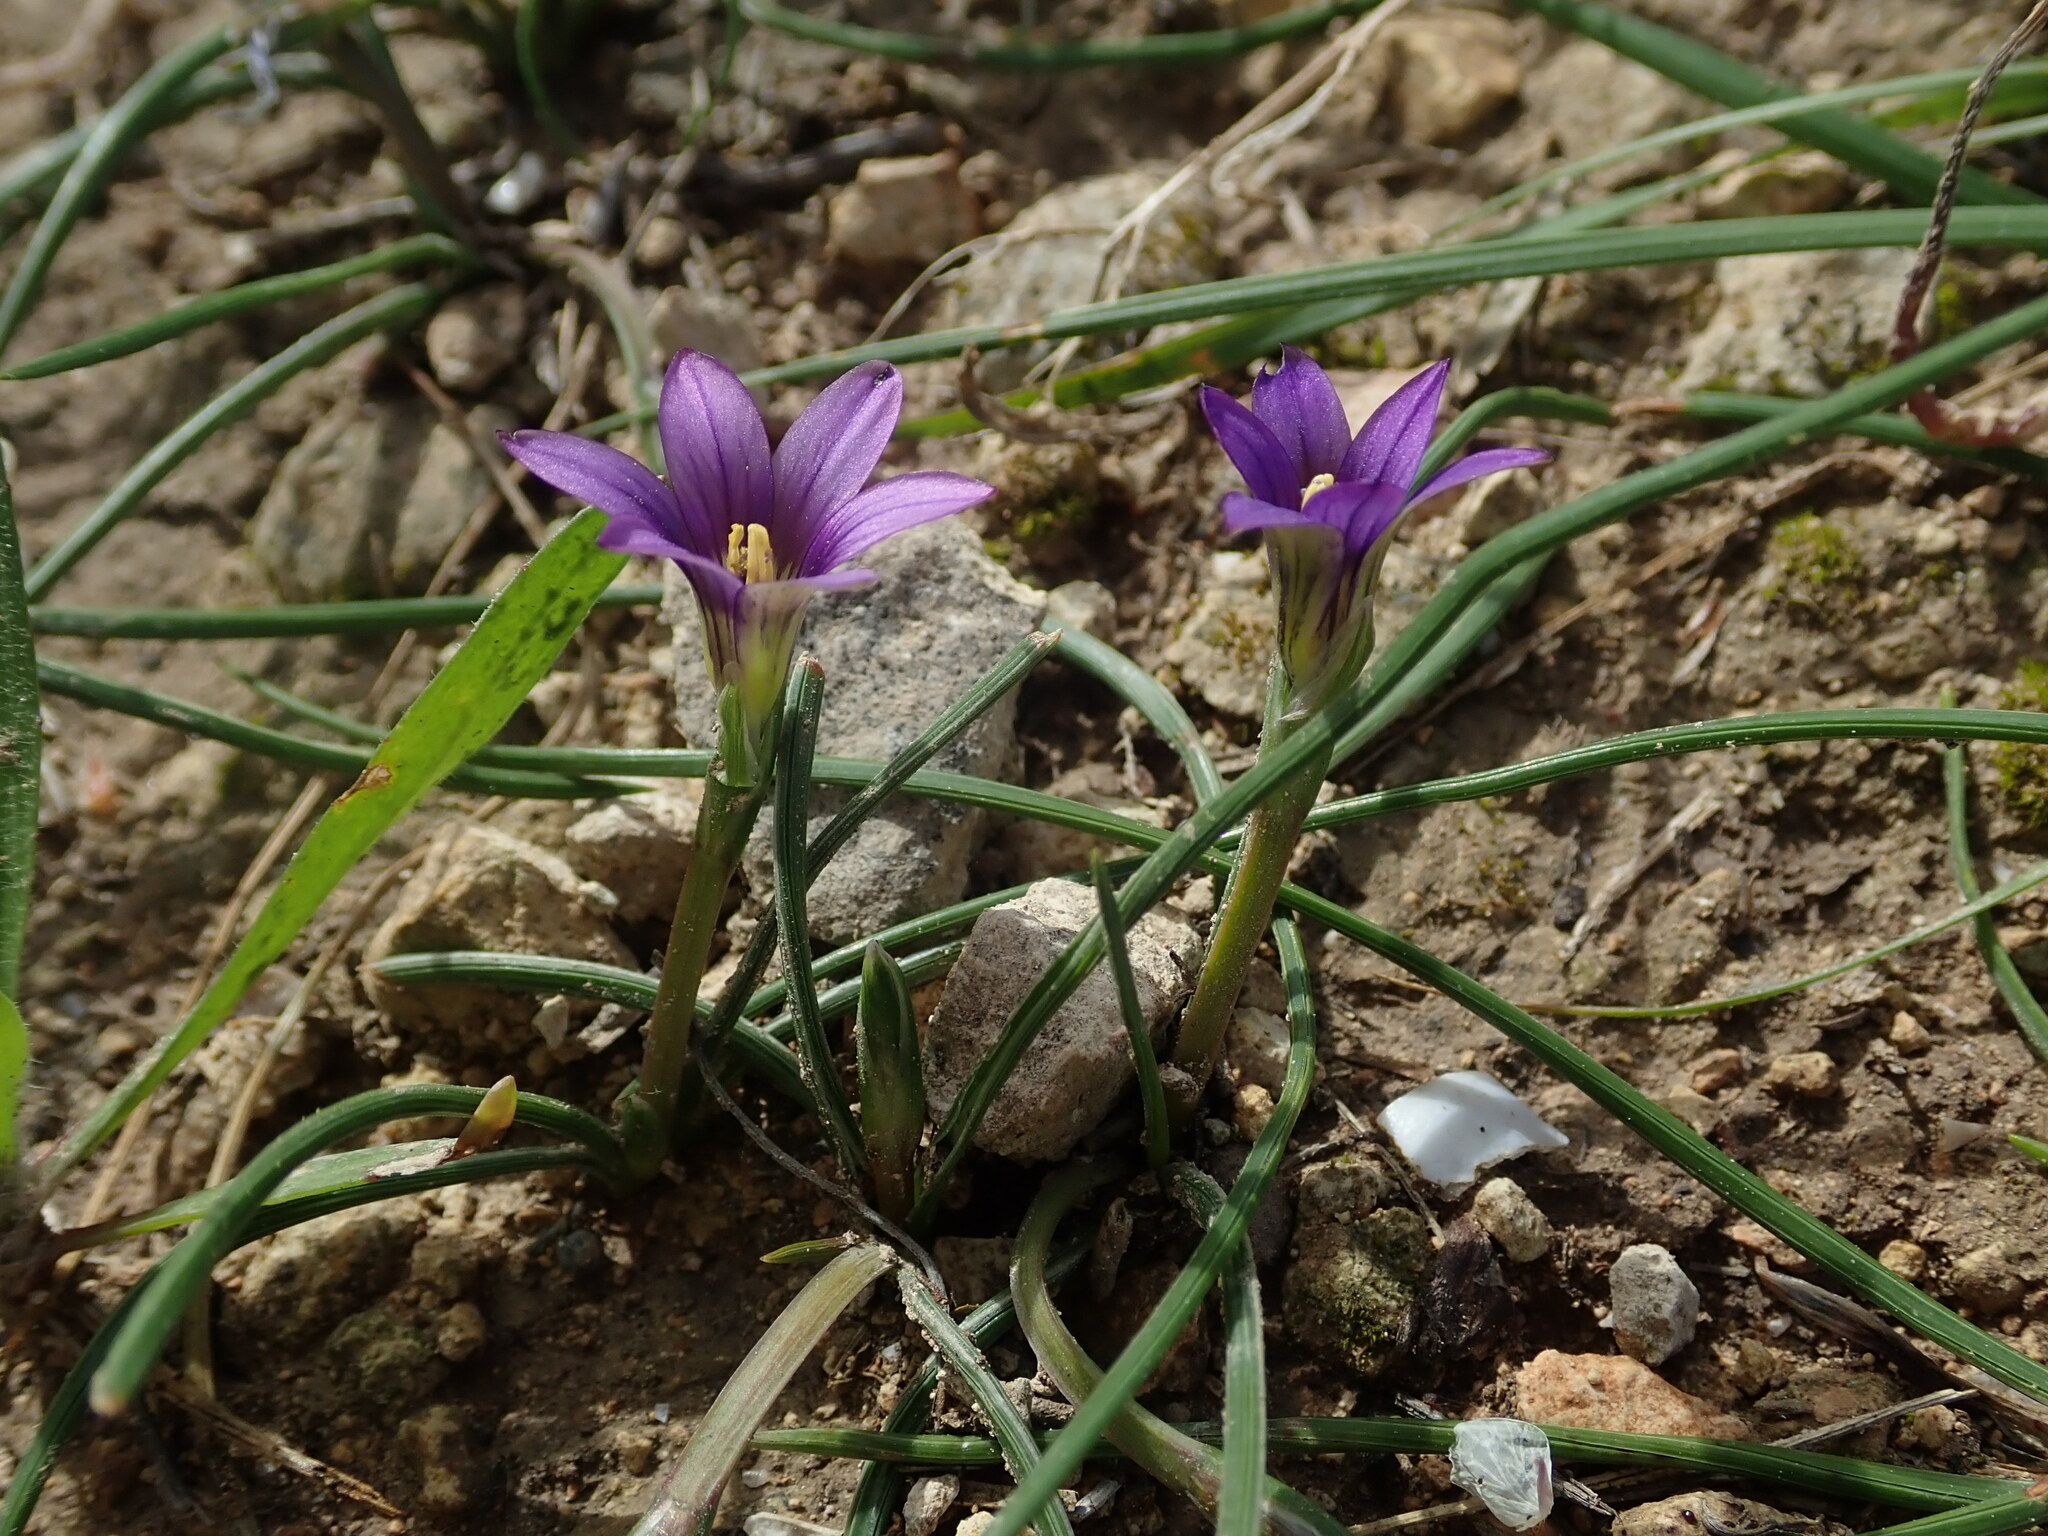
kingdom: Plantae
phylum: Tracheophyta
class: Liliopsida
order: Asparagales
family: Iridaceae
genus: Romulea
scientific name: Romulea variicolor
